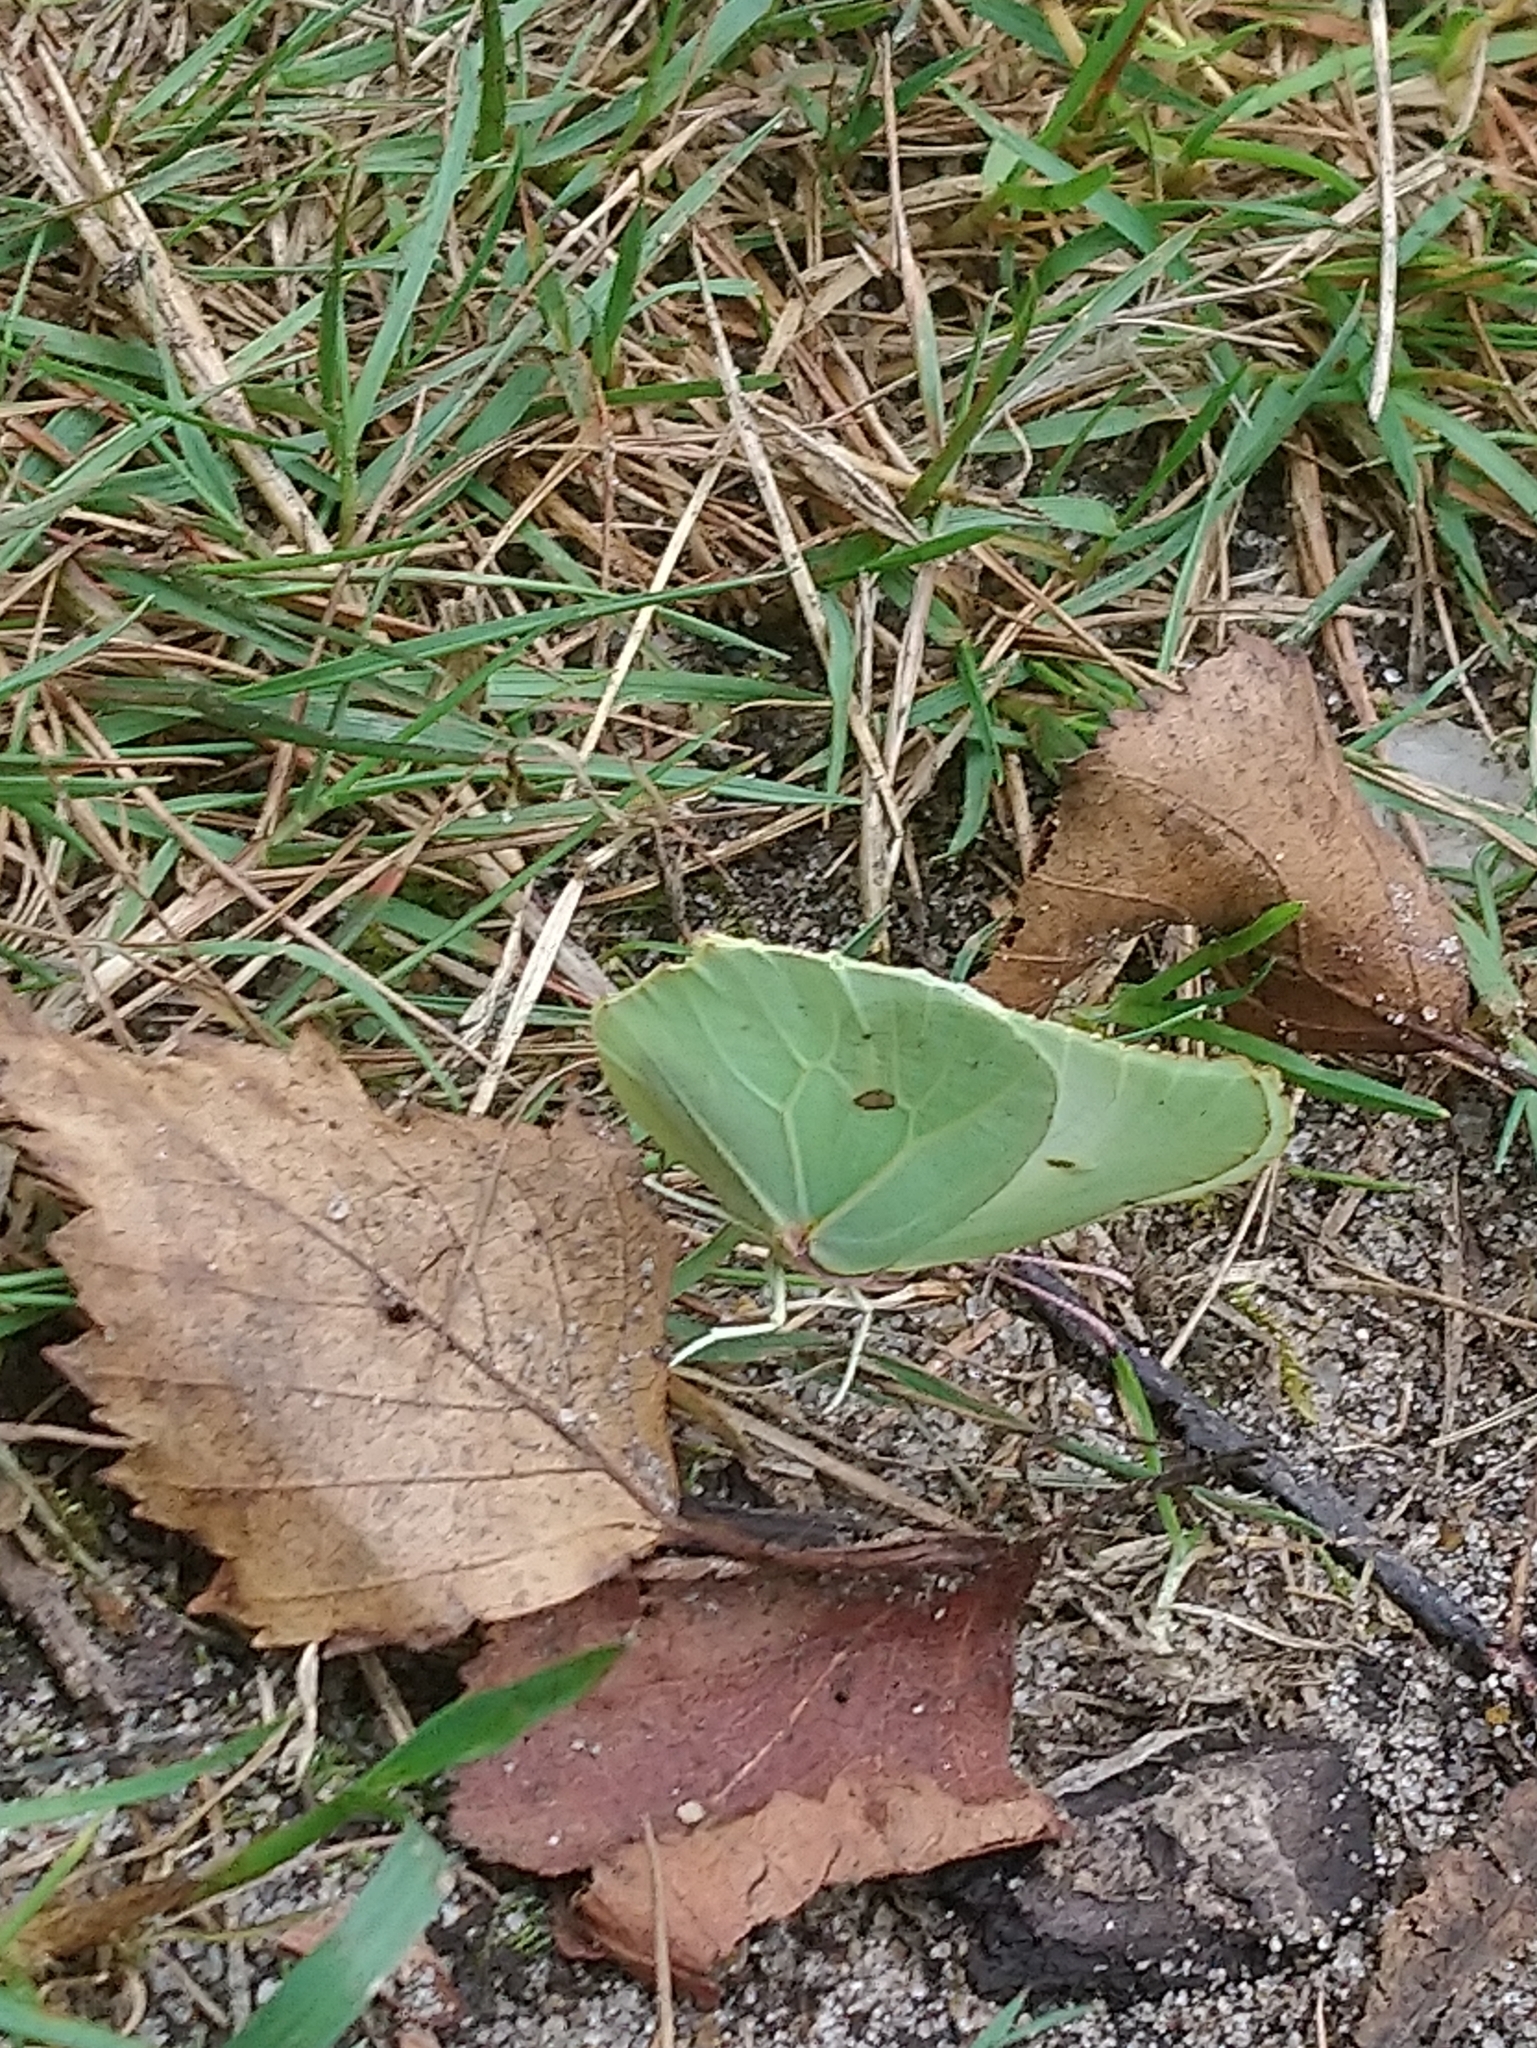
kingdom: Animalia
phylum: Arthropoda
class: Insecta
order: Lepidoptera
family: Pieridae
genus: Gonepteryx
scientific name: Gonepteryx rhamni
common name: Brimstone
